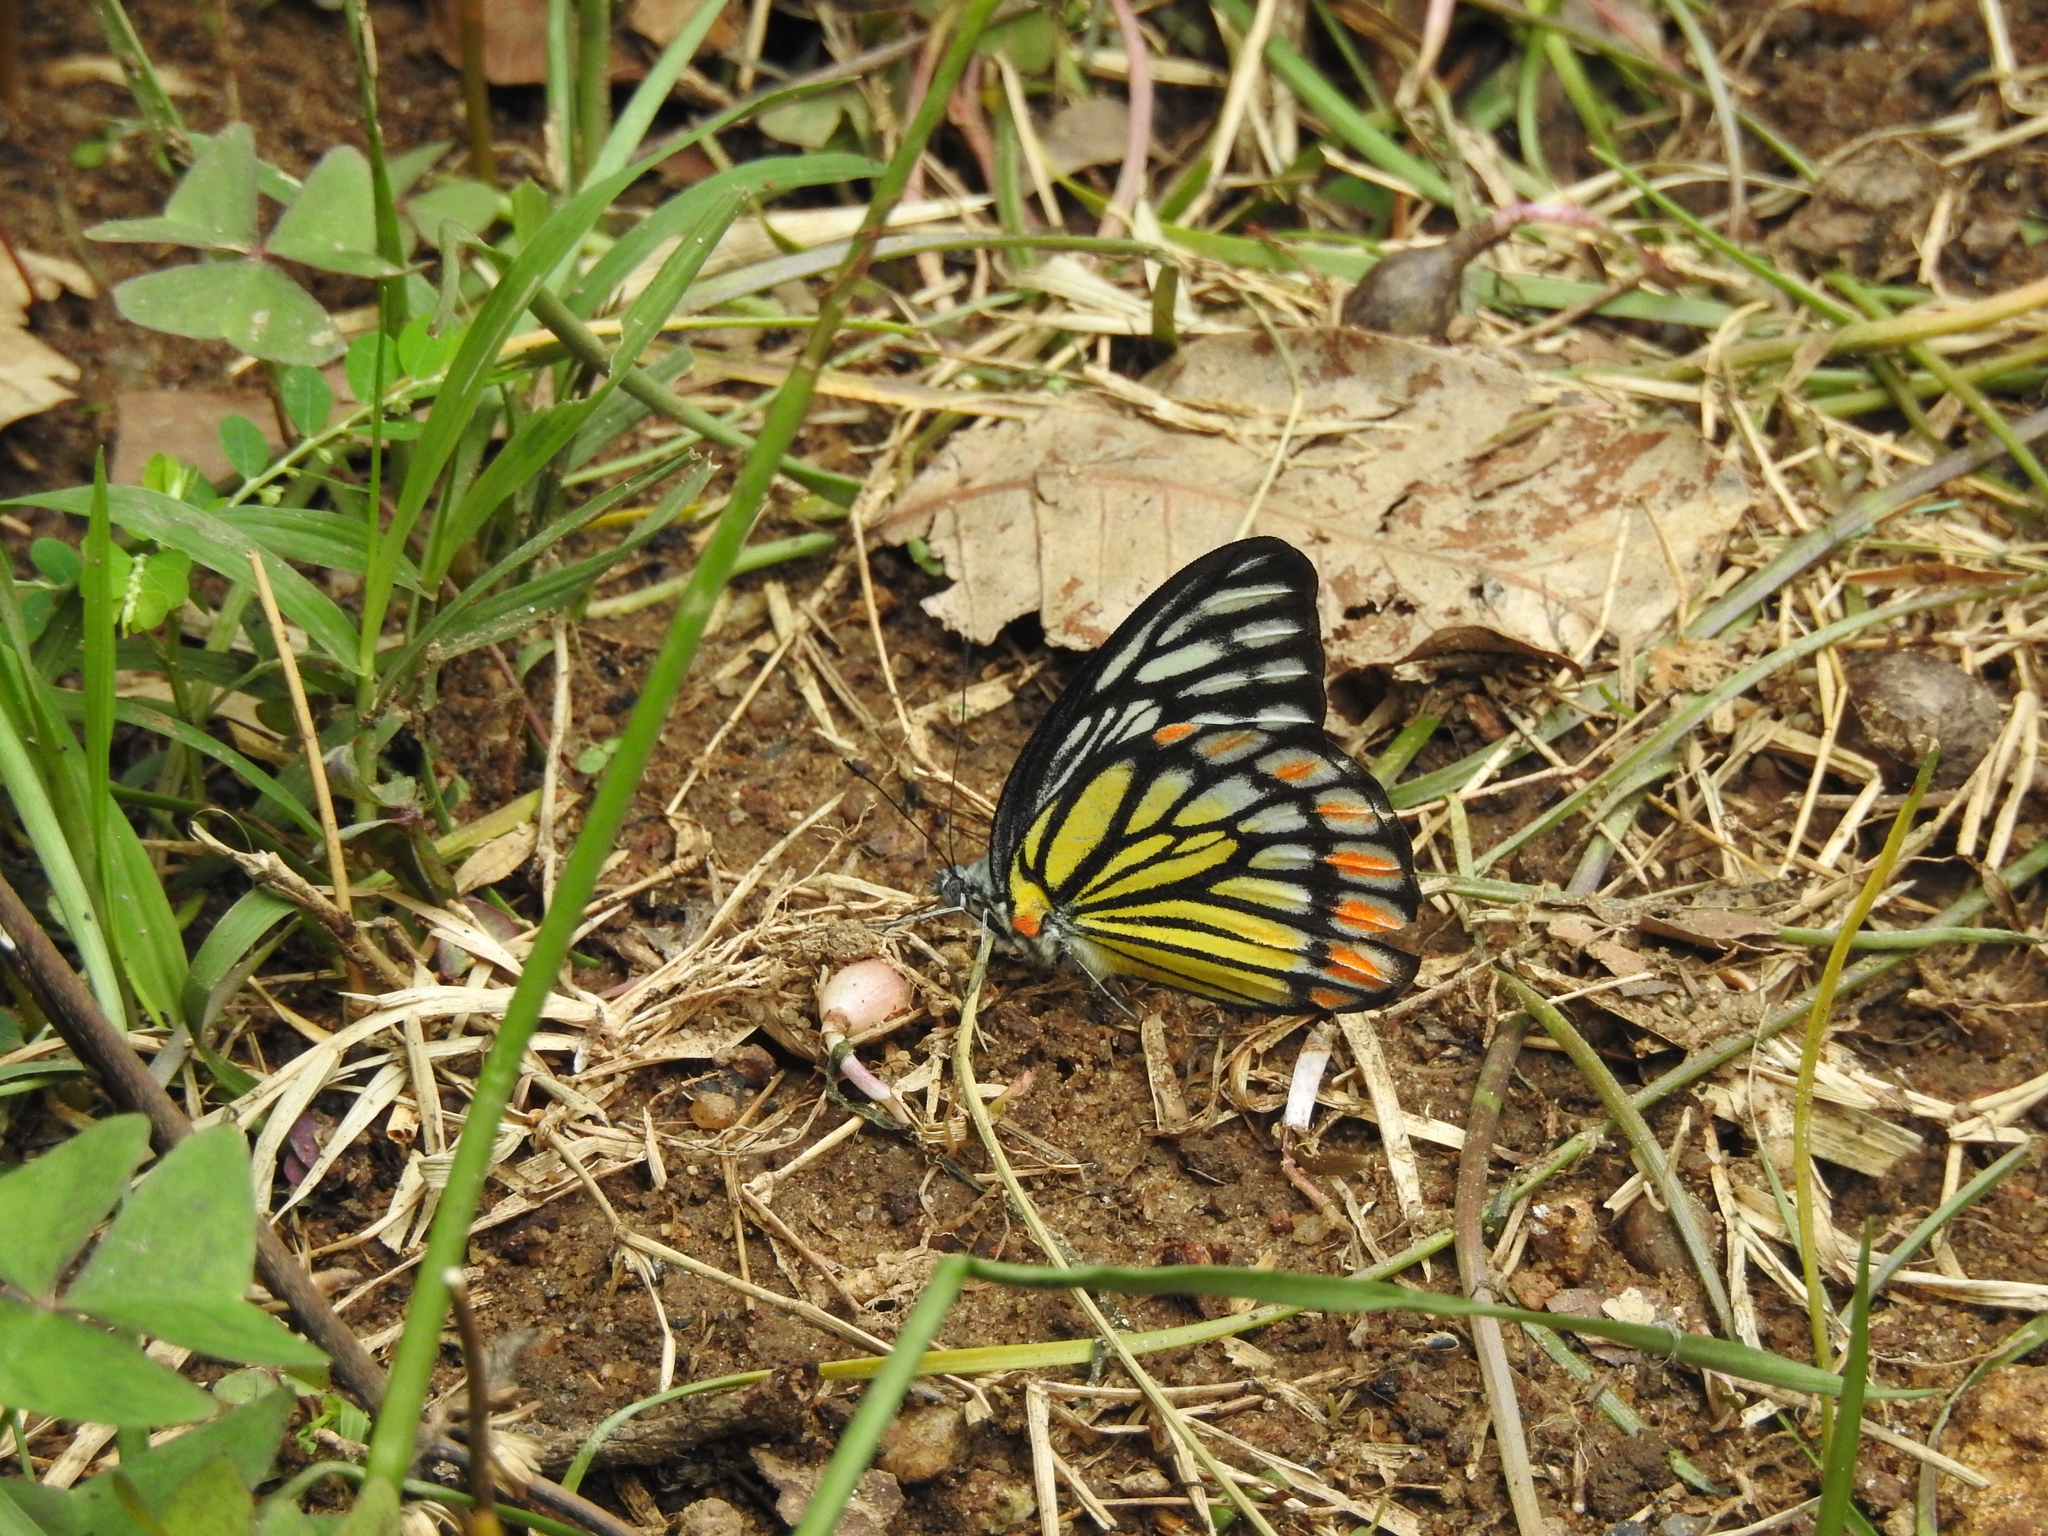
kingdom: Animalia
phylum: Arthropoda
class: Insecta
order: Lepidoptera
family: Pieridae
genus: Prioneris
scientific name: Prioneris sita
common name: Painted sawtooth
